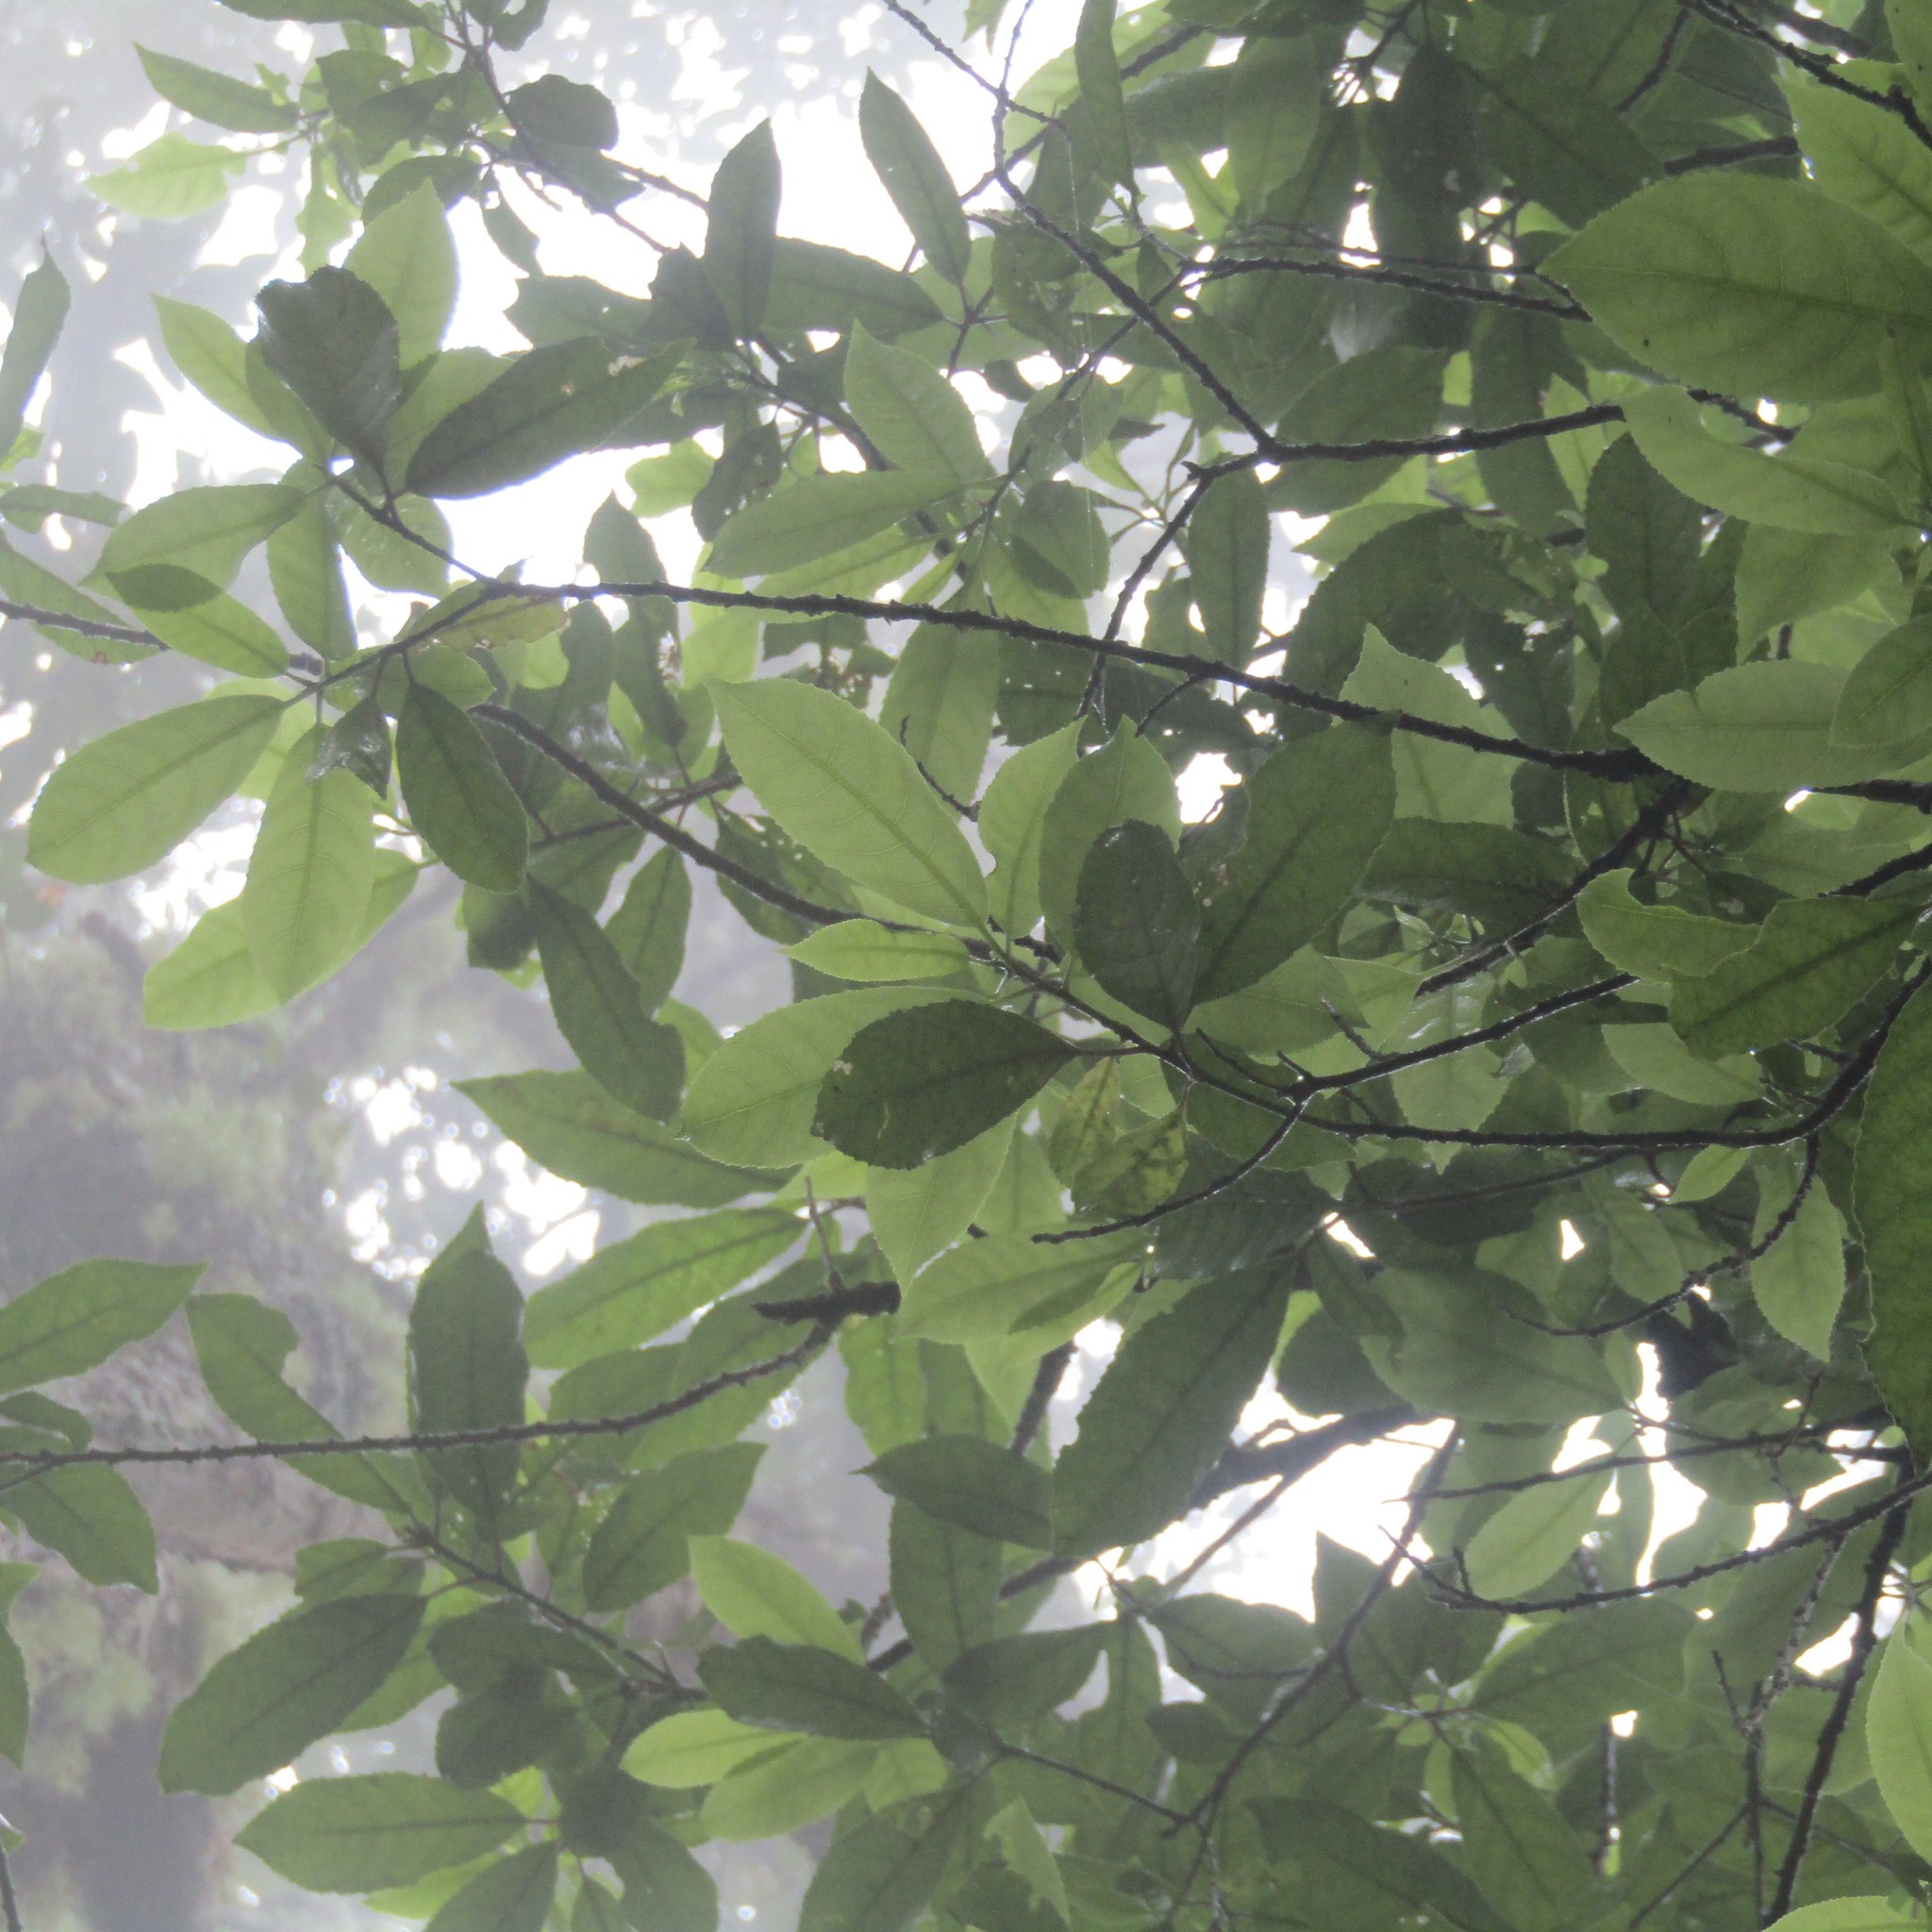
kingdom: Plantae
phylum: Tracheophyta
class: Magnoliopsida
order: Malpighiales
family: Violaceae
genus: Melicytus
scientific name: Melicytus ramiflorus
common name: Mahoe
